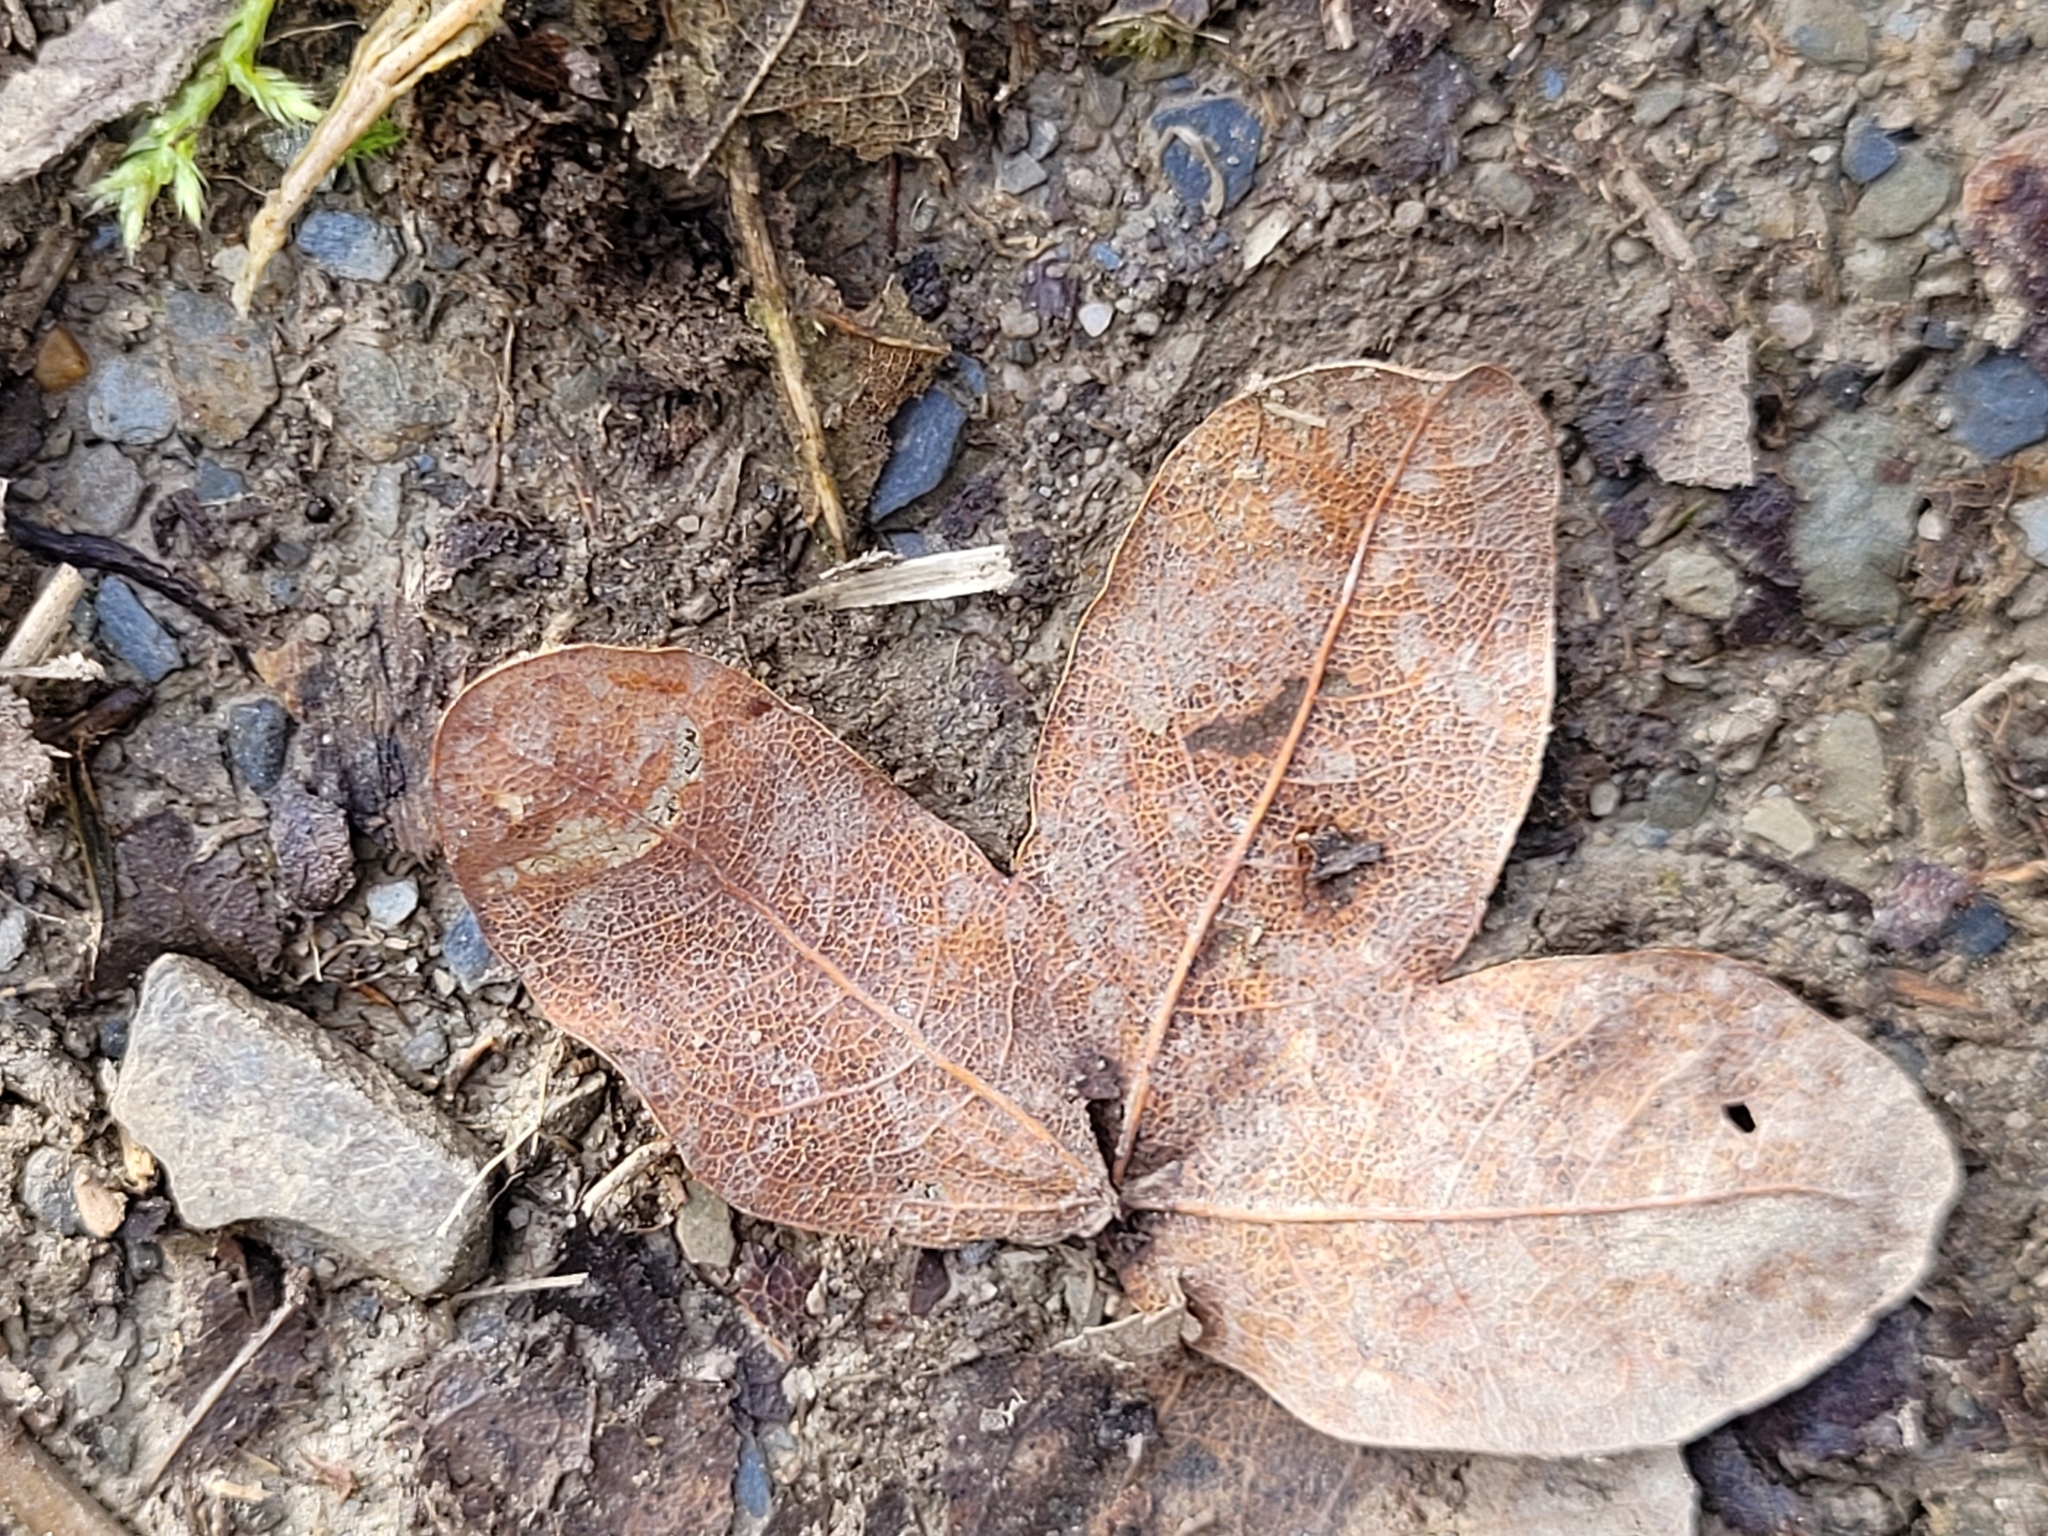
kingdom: Plantae
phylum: Tracheophyta
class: Magnoliopsida
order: Sapindales
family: Sapindaceae
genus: Acer
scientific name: Acer monspessulanum
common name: Montpellier maple
